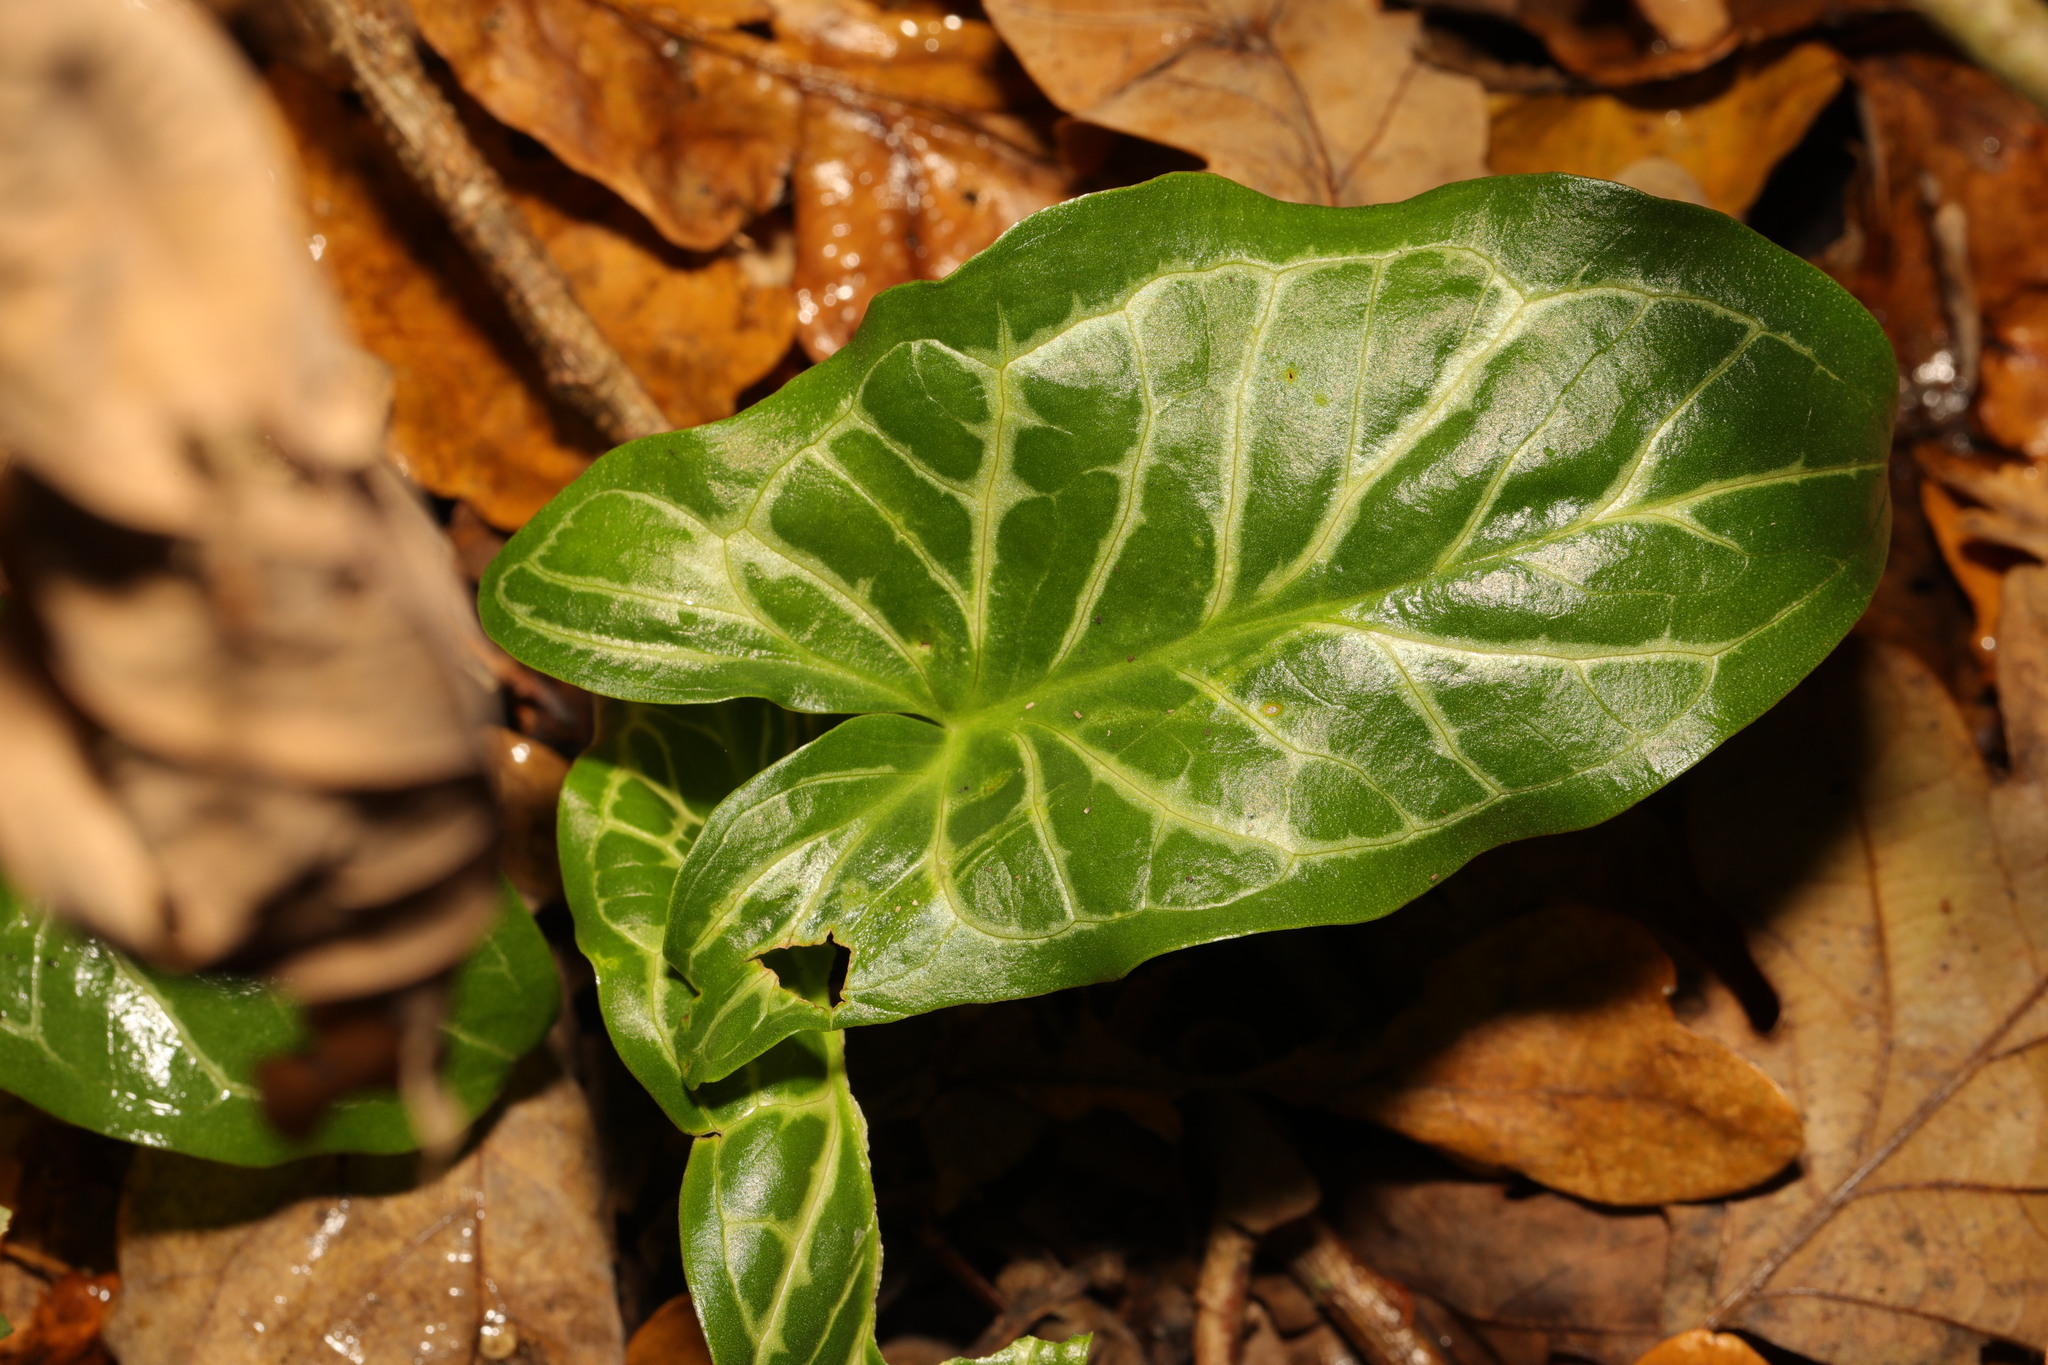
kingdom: Plantae
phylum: Tracheophyta
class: Liliopsida
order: Alismatales
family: Araceae
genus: Arum
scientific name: Arum italicum
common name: Italian lords-and-ladies
